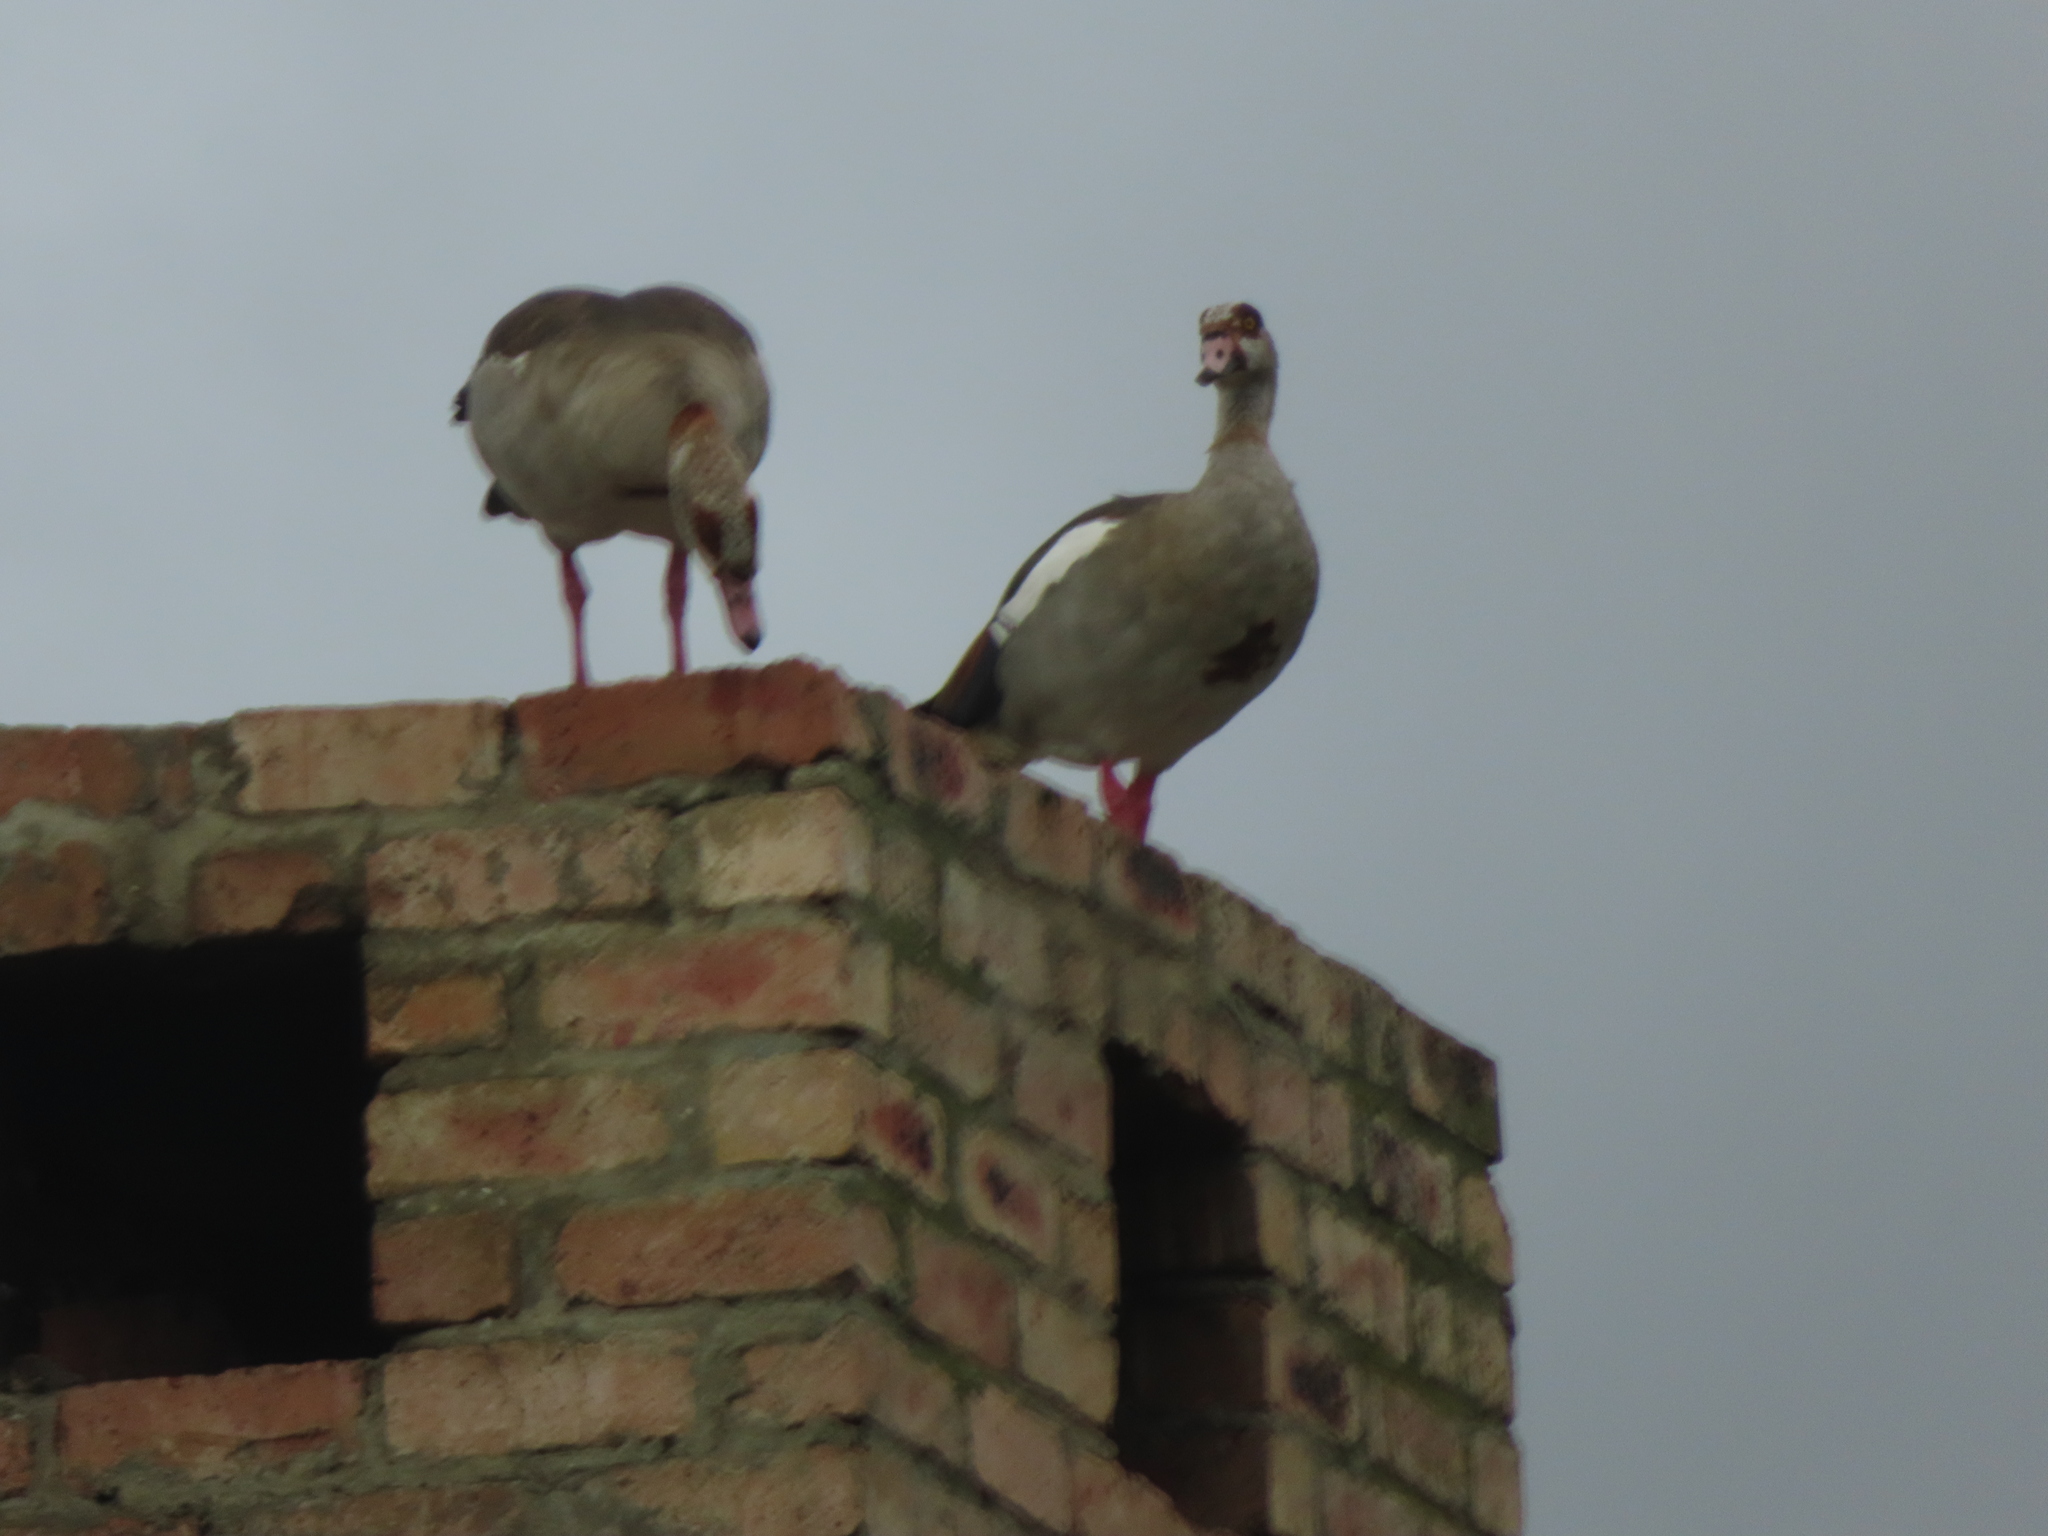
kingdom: Animalia
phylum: Chordata
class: Aves
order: Anseriformes
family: Anatidae
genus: Alopochen
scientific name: Alopochen aegyptiaca
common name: Egyptian goose
